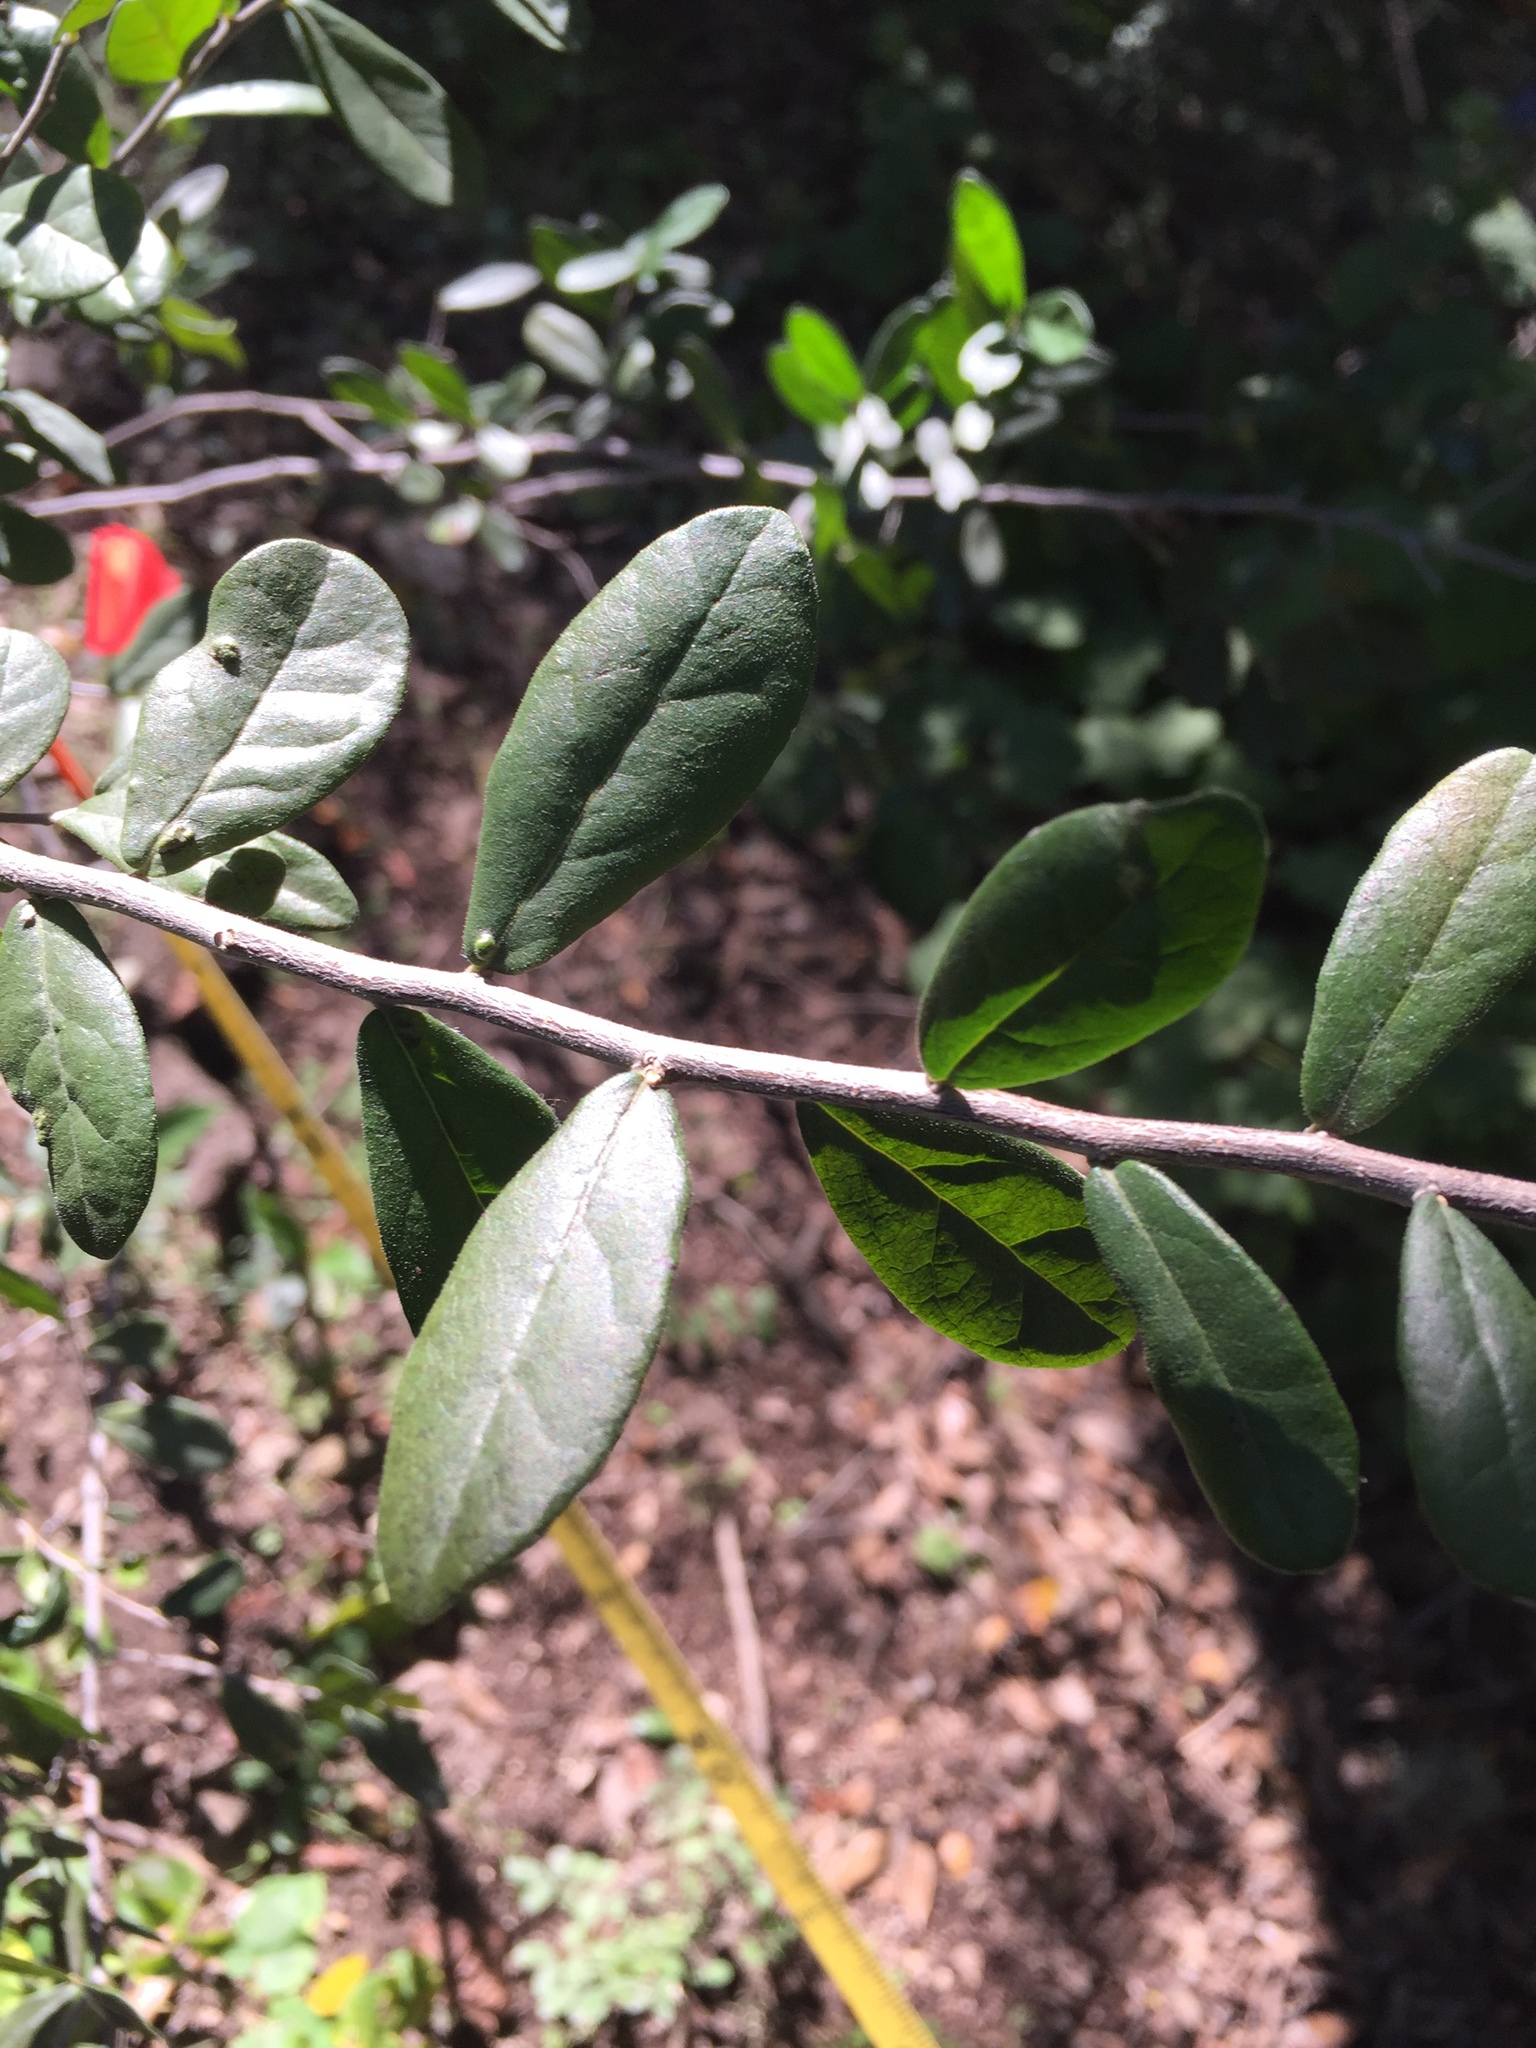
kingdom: Plantae
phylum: Tracheophyta
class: Magnoliopsida
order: Ericales
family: Ebenaceae
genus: Diospyros
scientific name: Diospyros texana
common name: Texas persimmon
